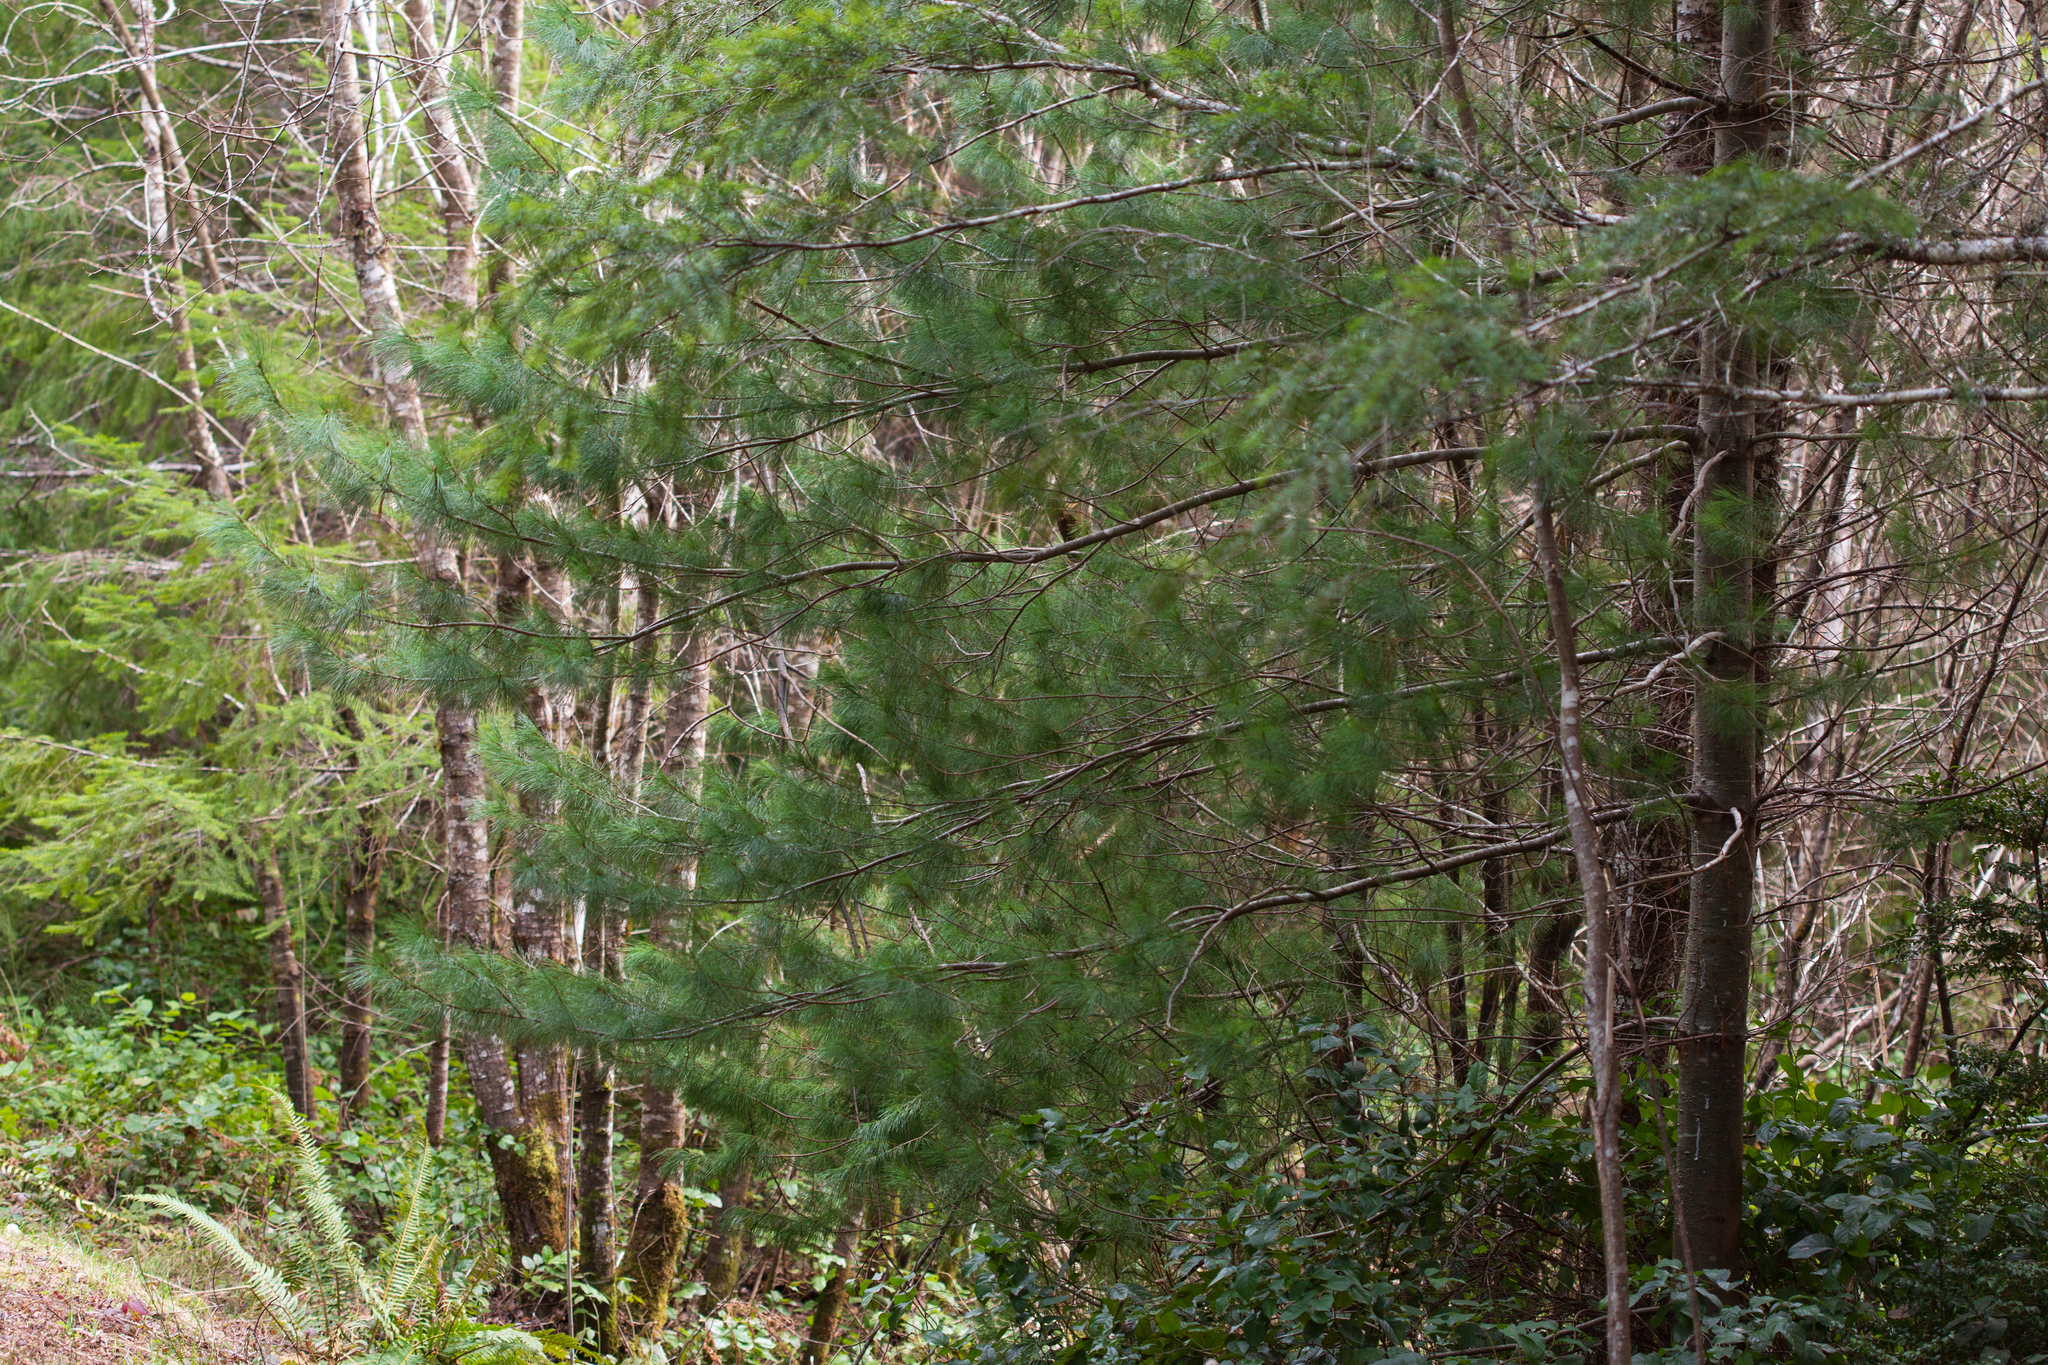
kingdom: Plantae
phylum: Tracheophyta
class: Pinopsida
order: Pinales
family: Pinaceae
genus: Pinus
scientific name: Pinus monticola
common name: Western white pine
